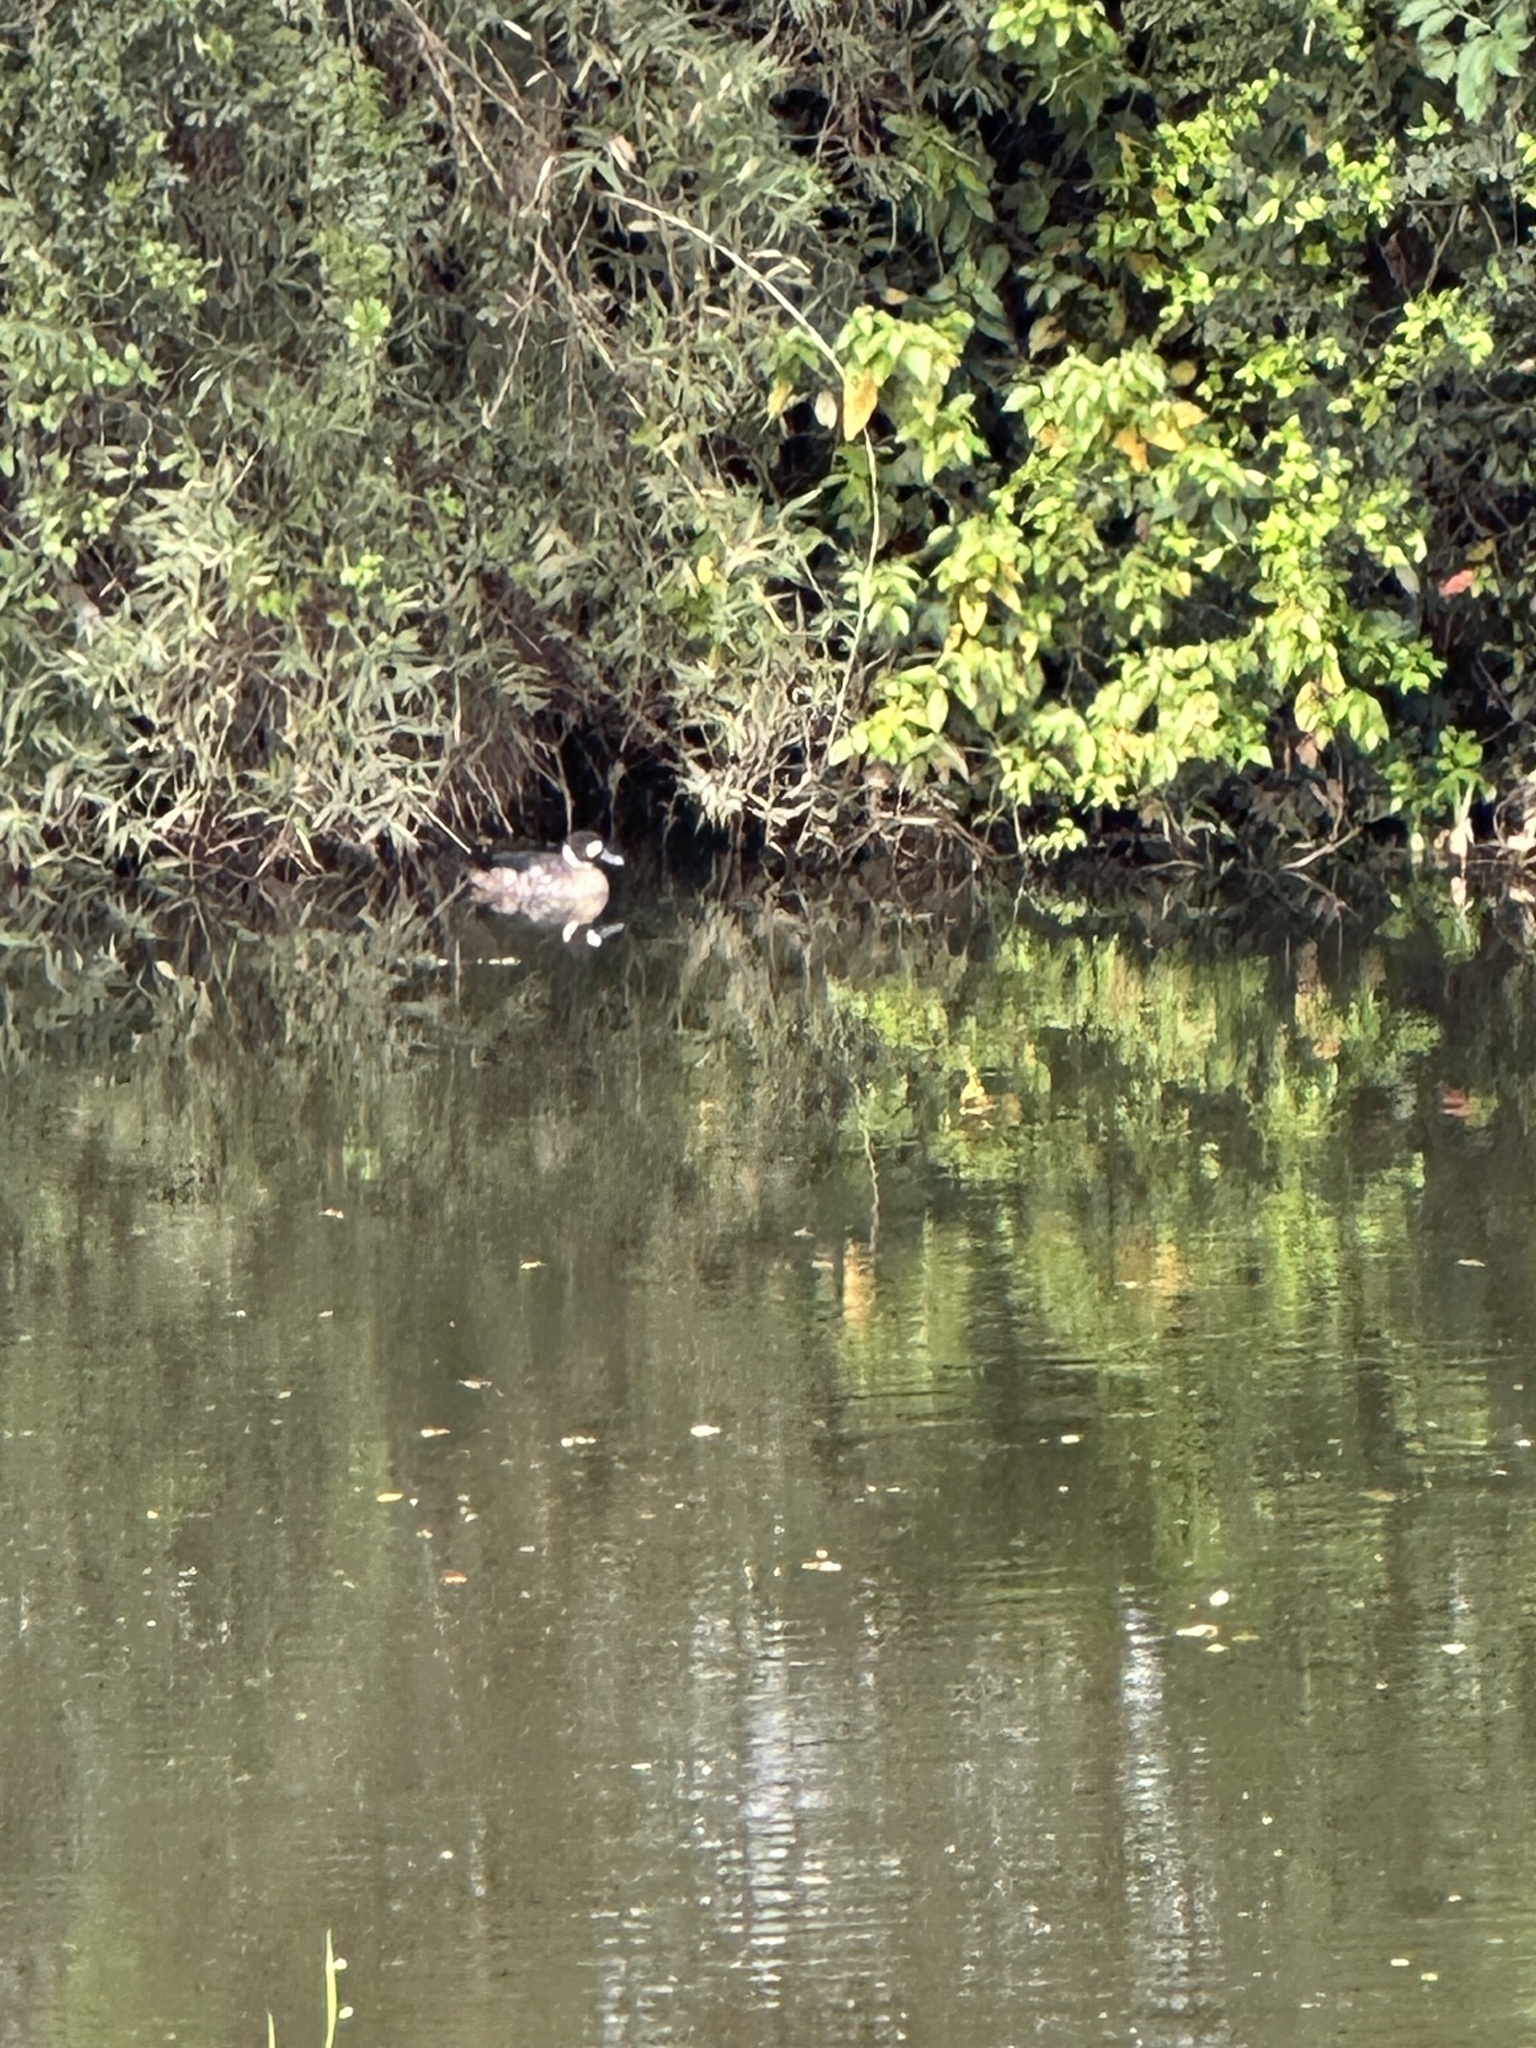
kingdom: Animalia
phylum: Chordata
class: Aves
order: Anseriformes
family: Anatidae
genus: Speculanas
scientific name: Speculanas specularis
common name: Bronze-winged duck
